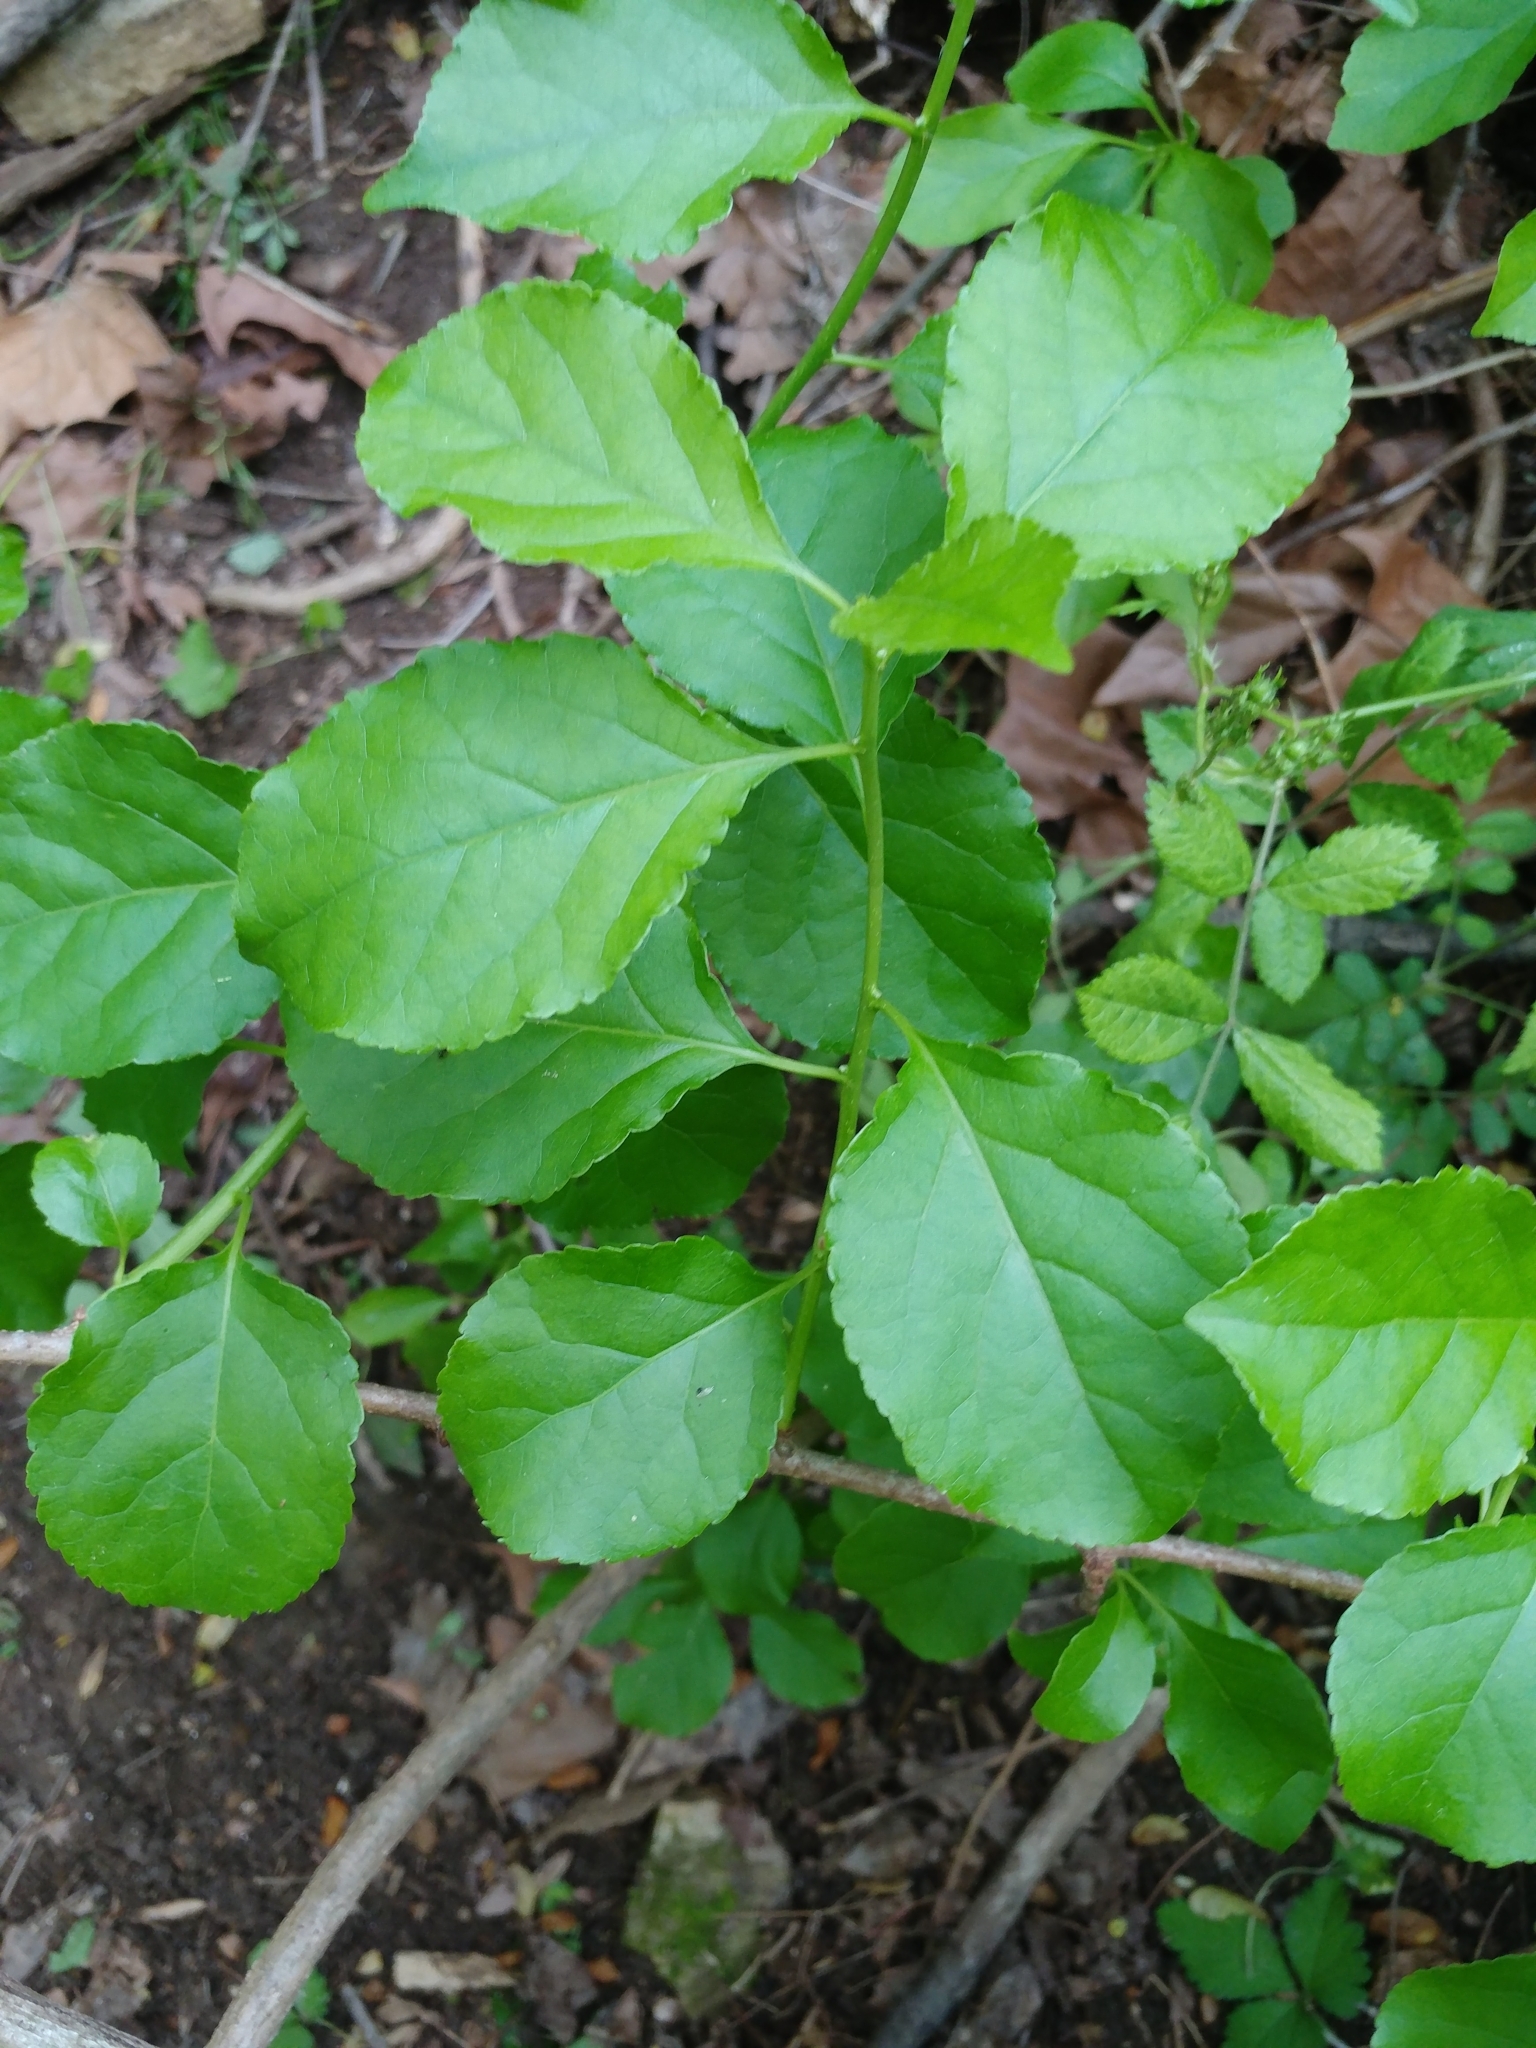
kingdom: Plantae
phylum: Tracheophyta
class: Magnoliopsida
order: Celastrales
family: Celastraceae
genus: Celastrus
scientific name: Celastrus orbiculatus
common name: Oriental bittersweet
